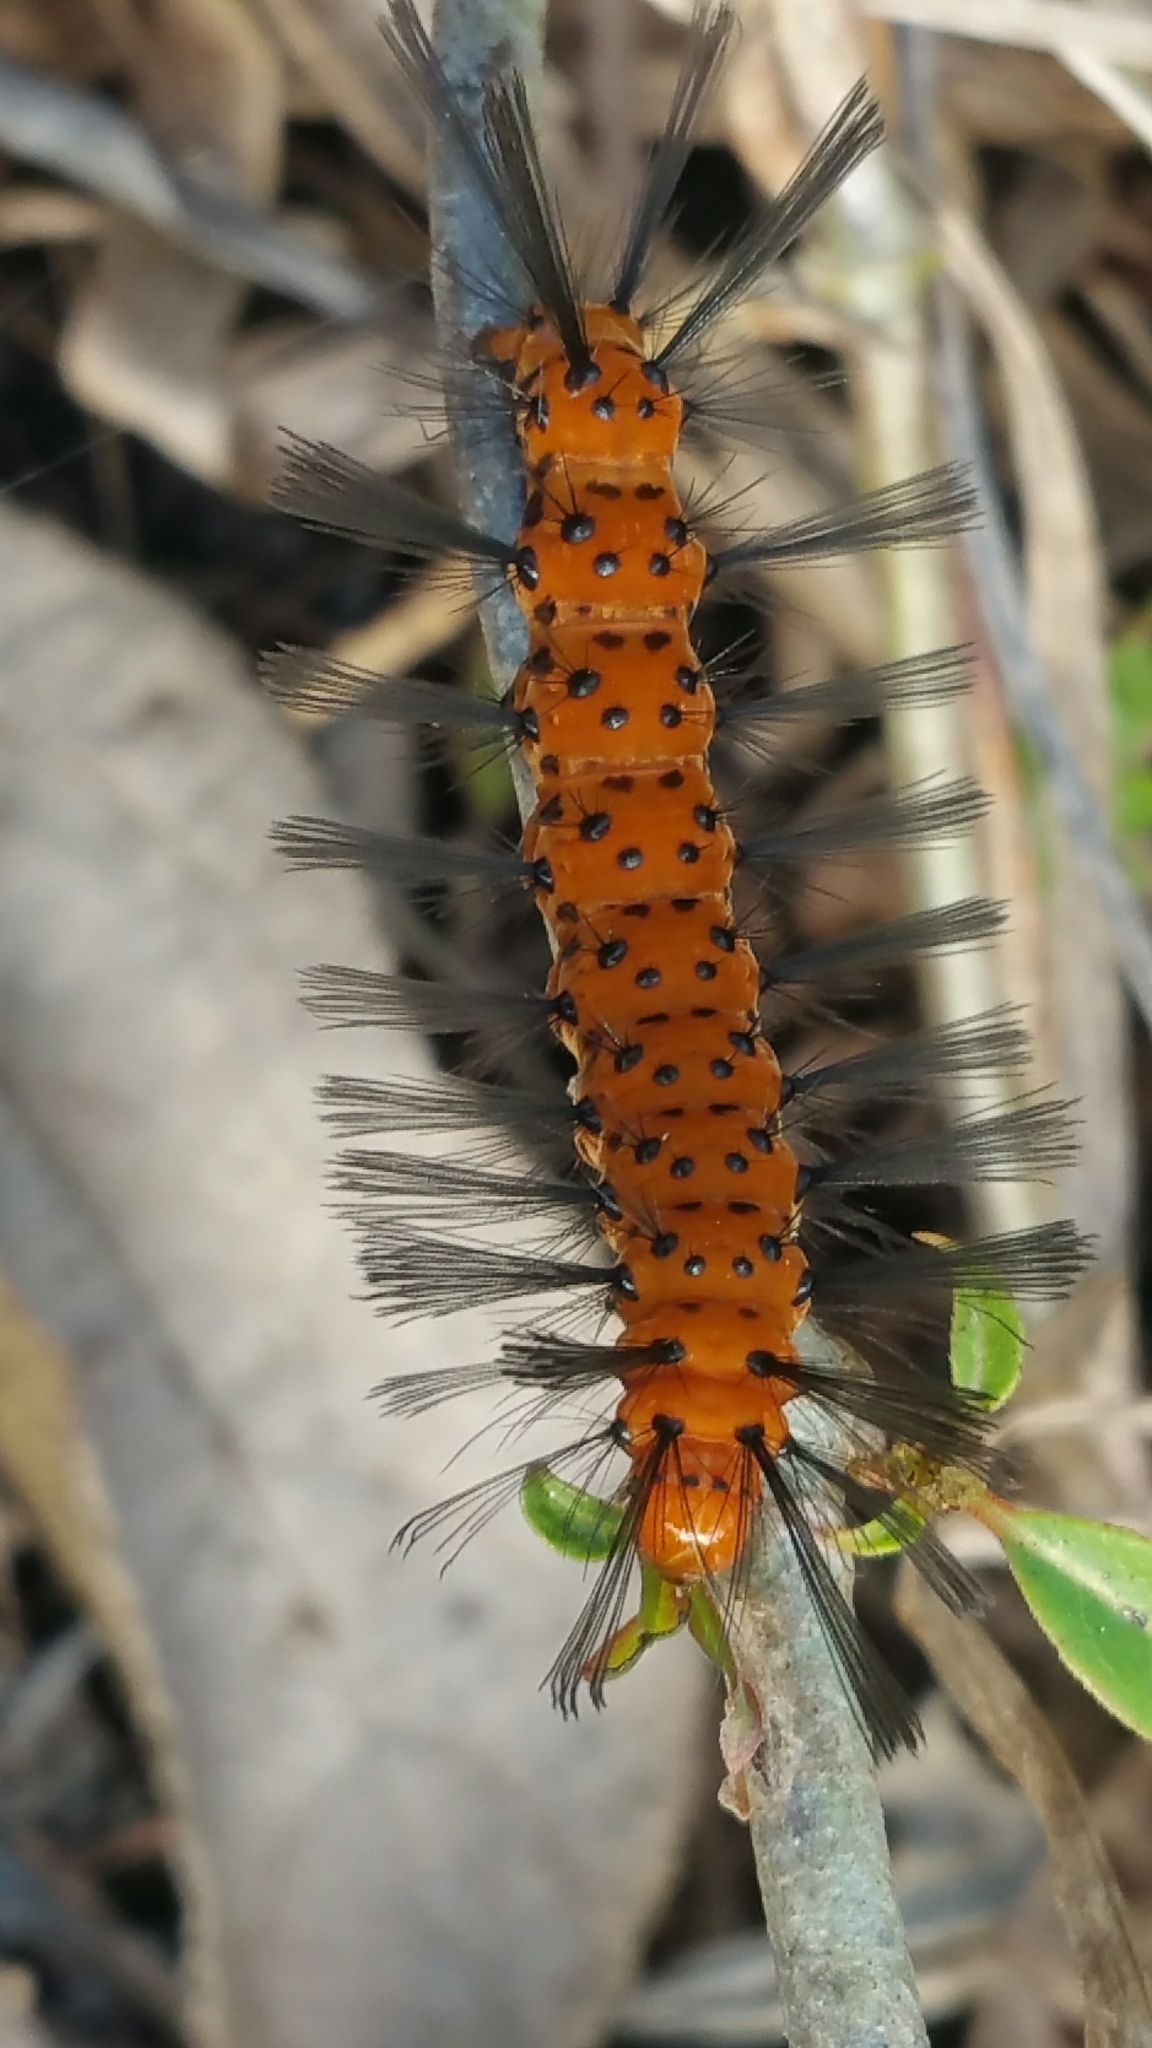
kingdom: Animalia
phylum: Arthropoda
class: Insecta
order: Lepidoptera
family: Erebidae
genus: Syntomeida
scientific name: Syntomeida epilais
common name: Polka-dot wasp moth
